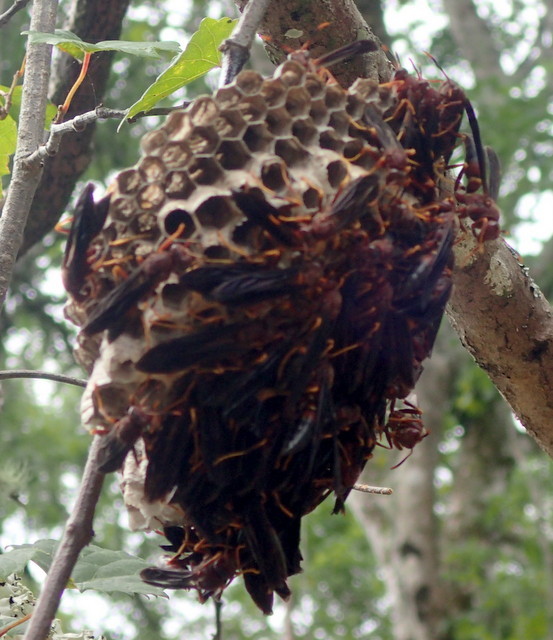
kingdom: Animalia
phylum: Arthropoda
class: Insecta
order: Hymenoptera
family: Eumenidae
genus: Polistes
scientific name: Polistes annularis
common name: Ringed paper wasp
